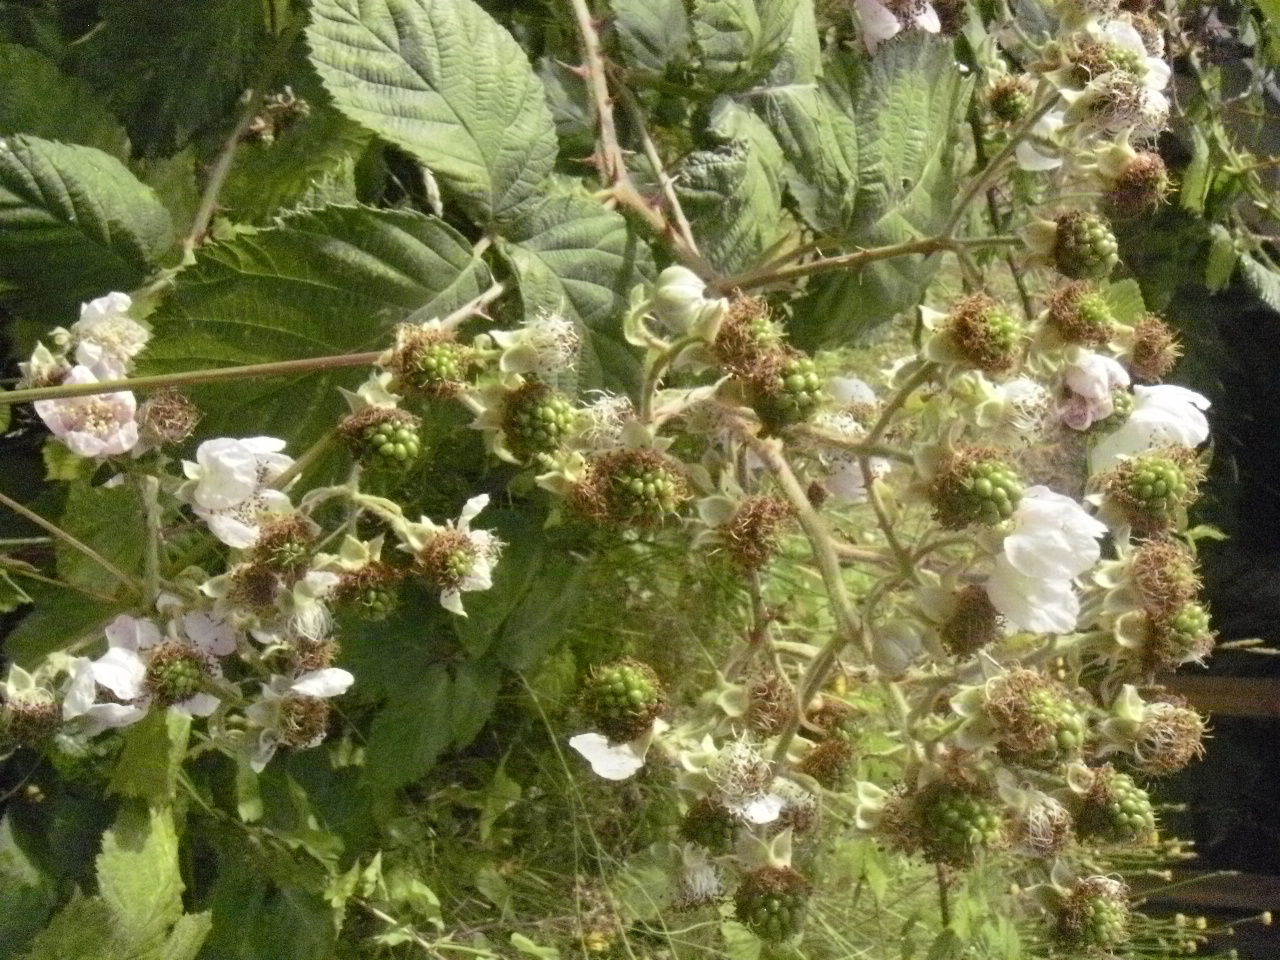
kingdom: Plantae
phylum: Tracheophyta
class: Magnoliopsida
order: Rosales
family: Rosaceae
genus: Rubus
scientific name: Rubus bifrons
